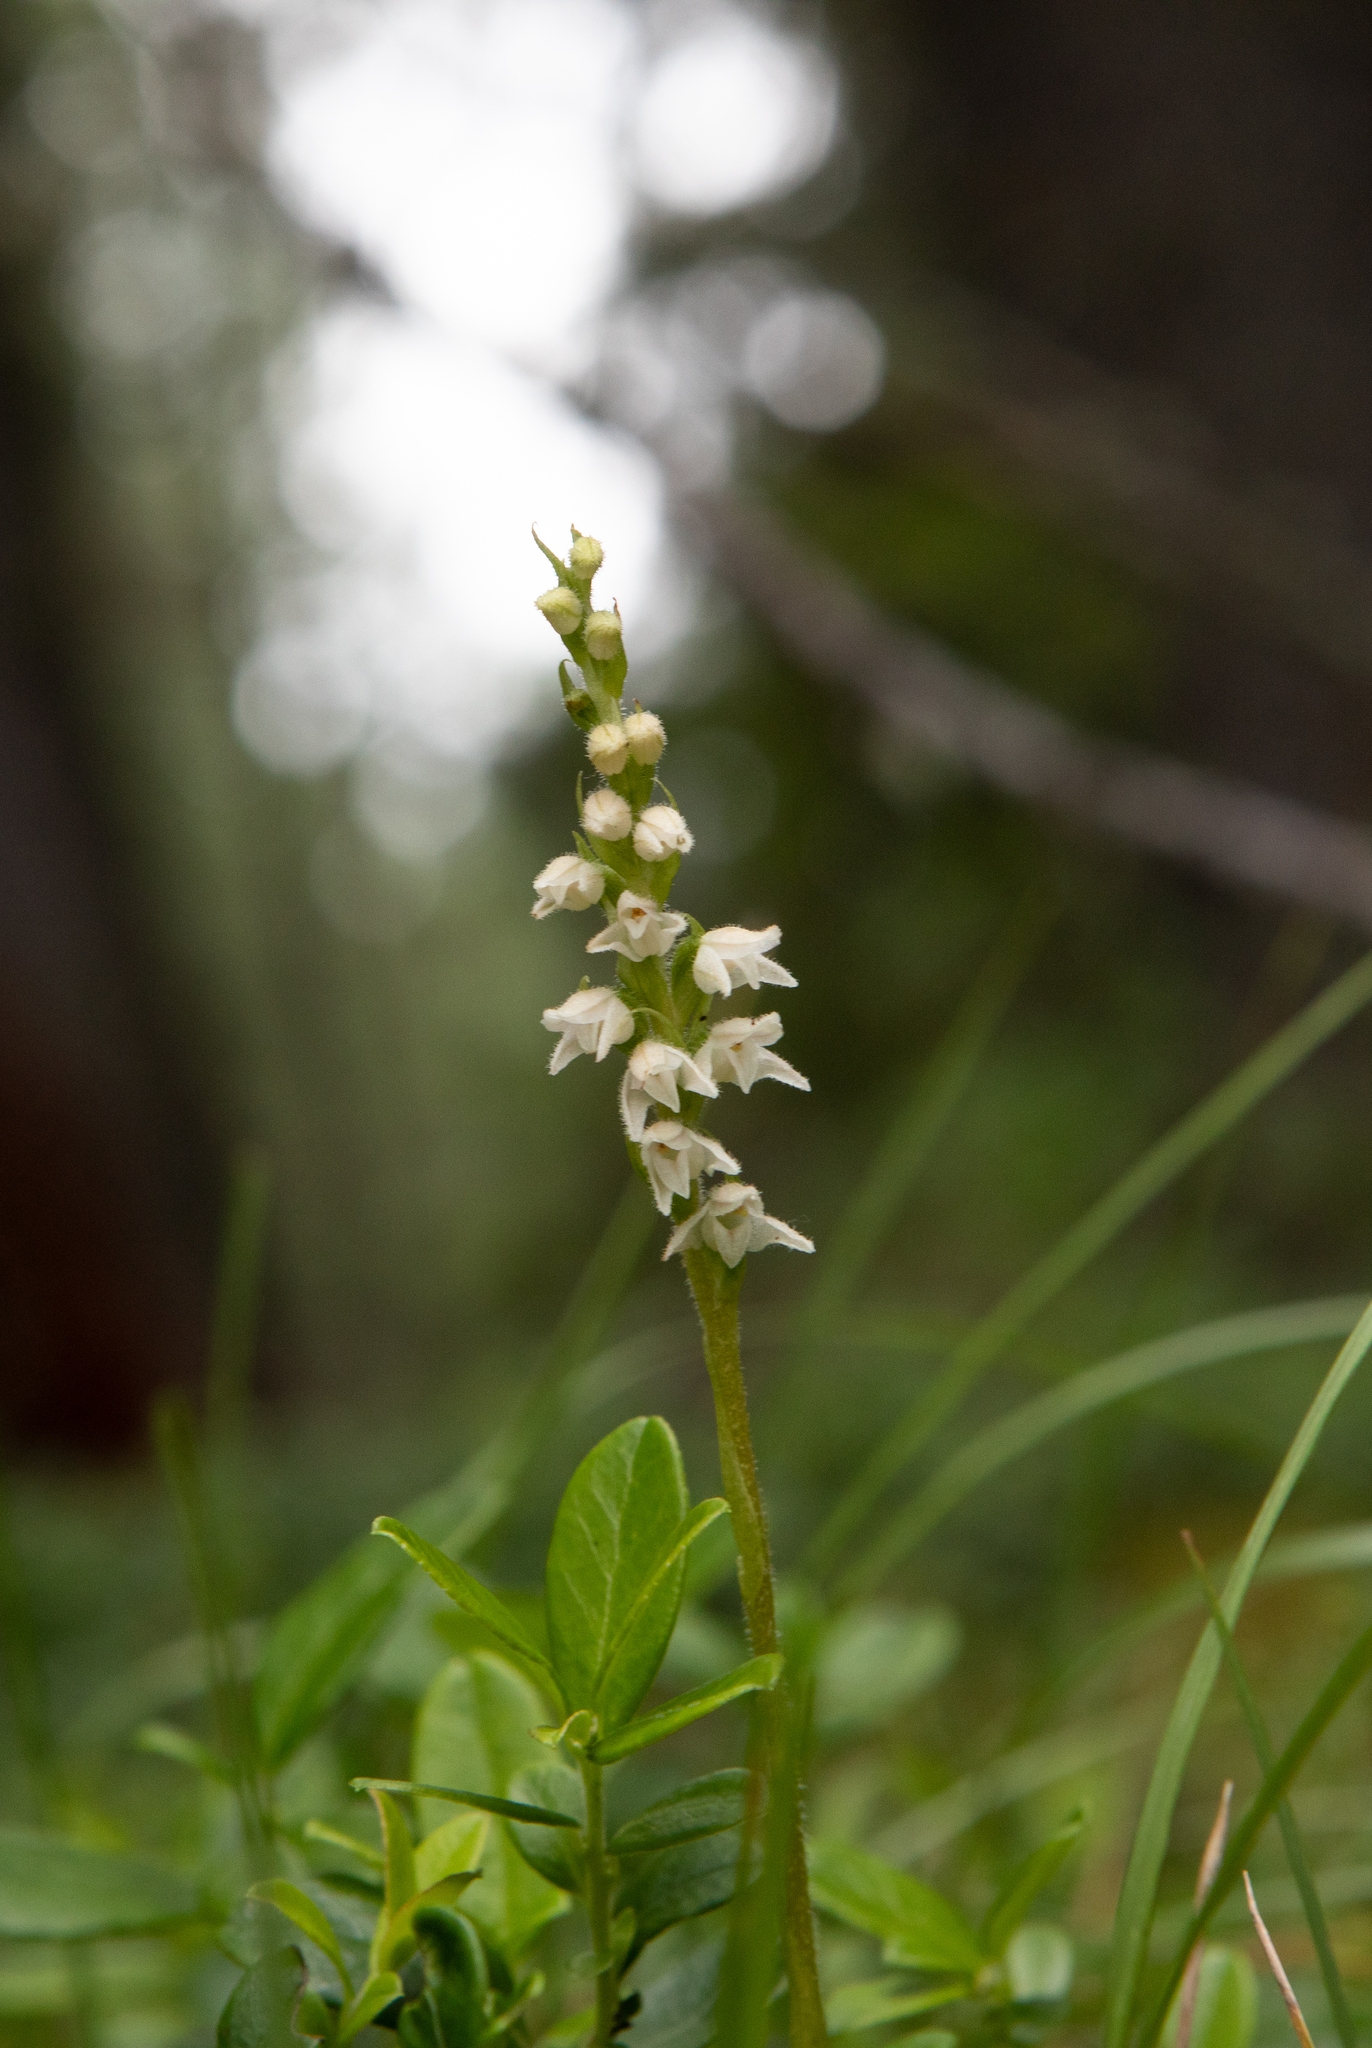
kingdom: Plantae
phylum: Tracheophyta
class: Liliopsida
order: Asparagales
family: Orchidaceae
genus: Goodyera
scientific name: Goodyera repens
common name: Creeping lady's-tresses
